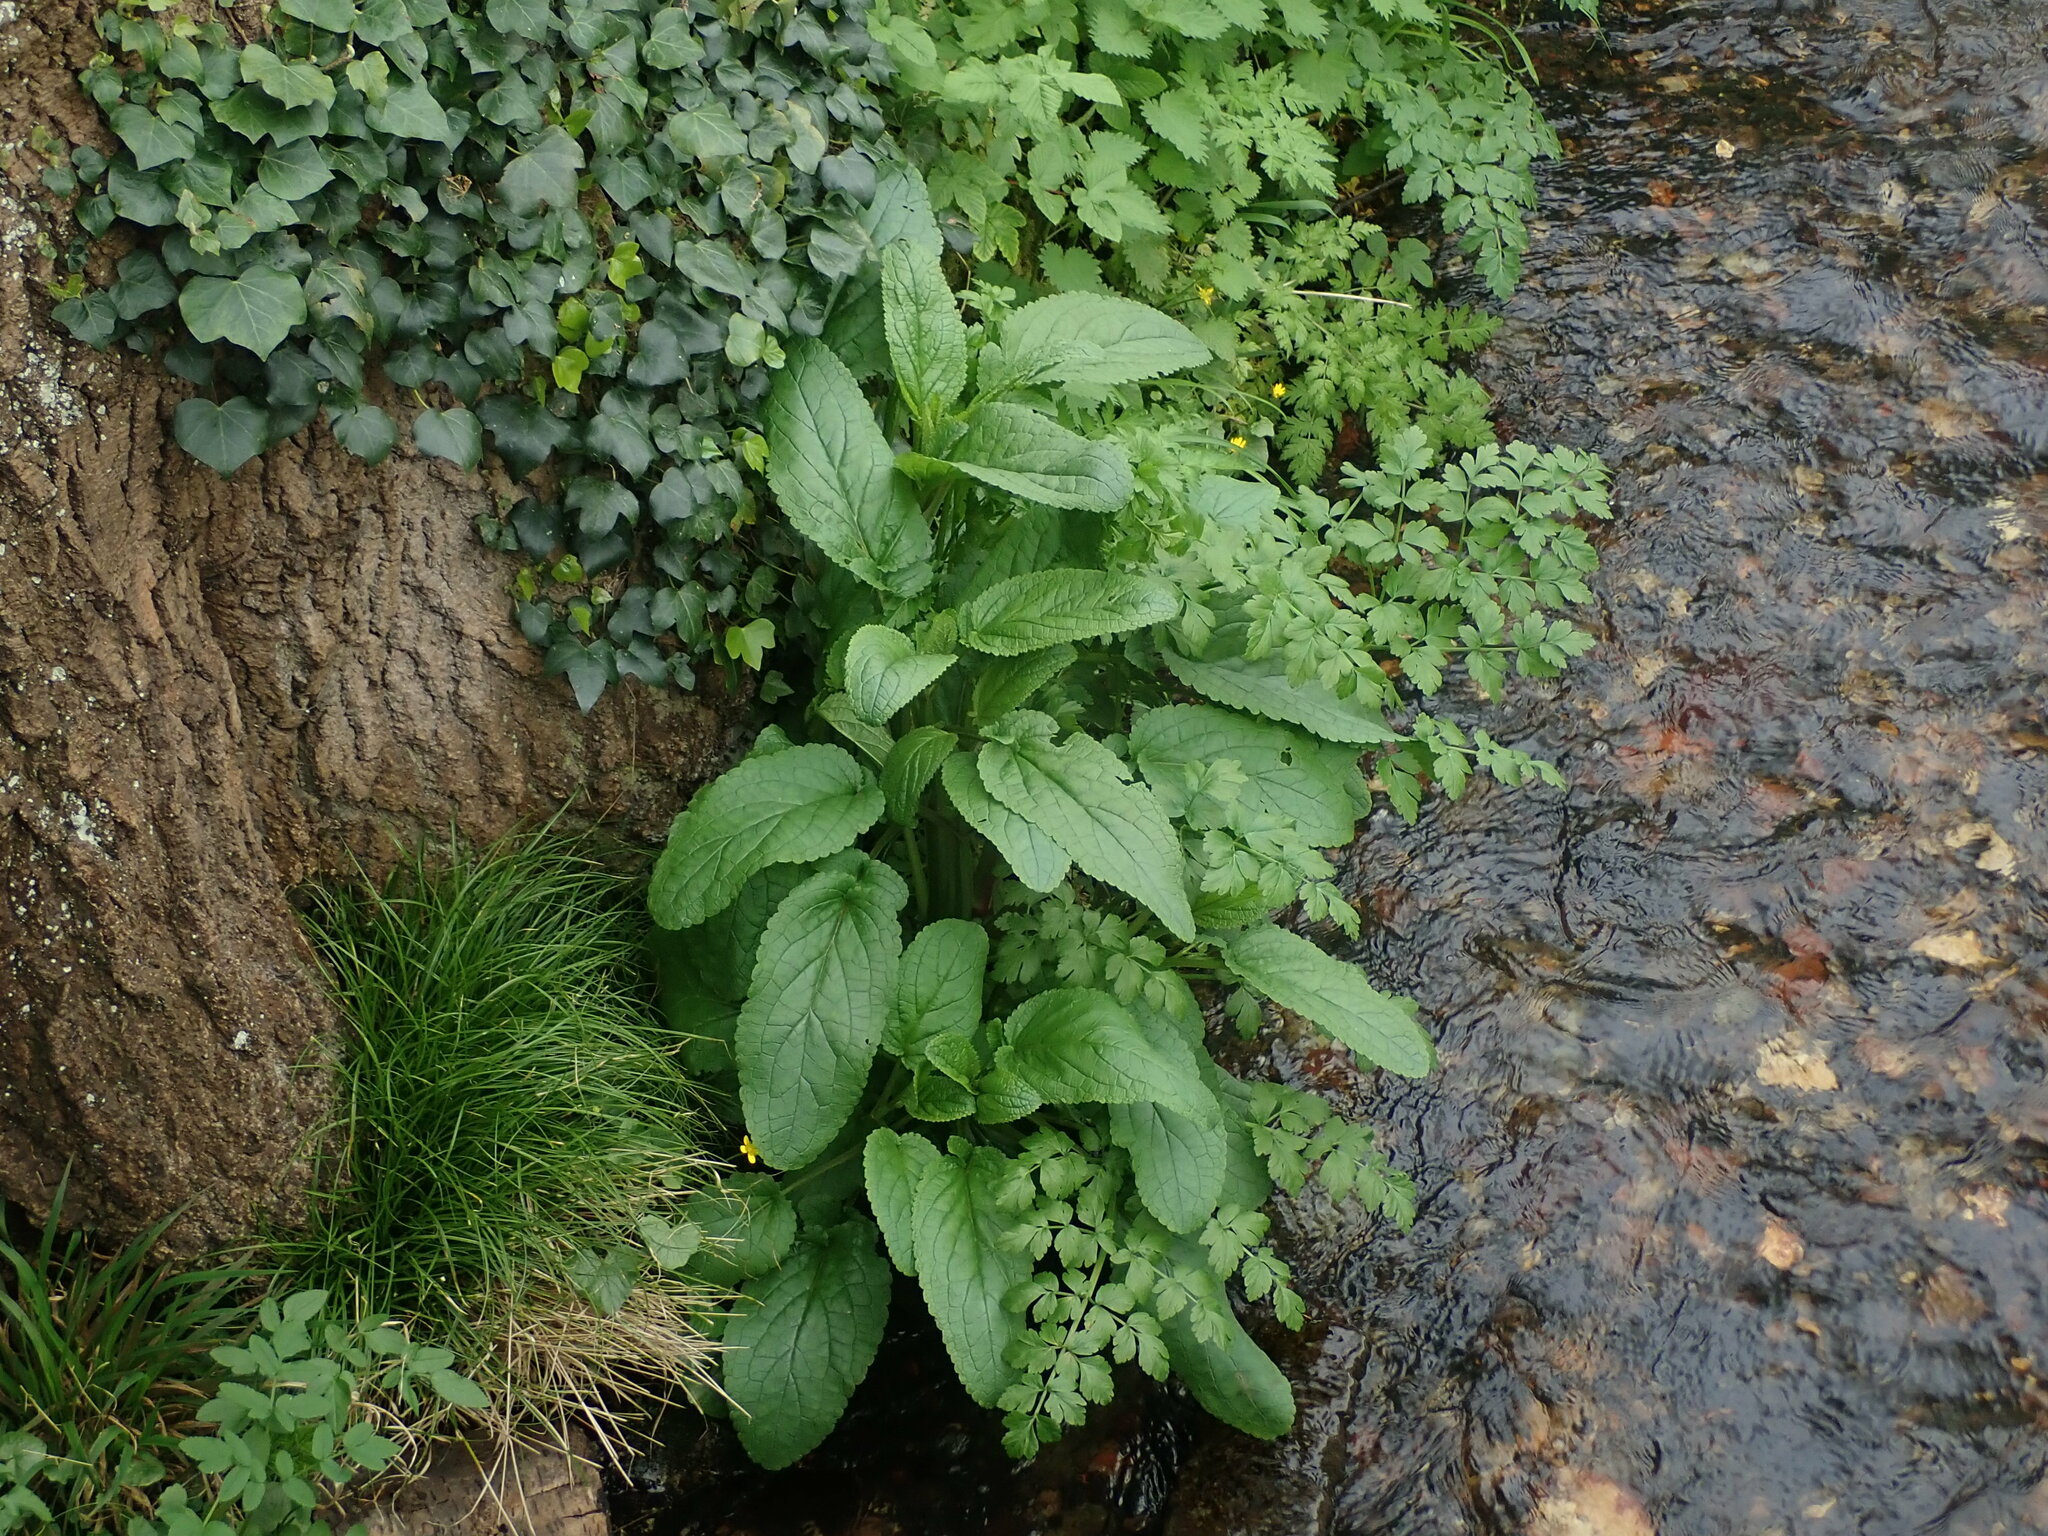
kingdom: Plantae
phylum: Tracheophyta
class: Magnoliopsida
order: Lamiales
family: Scrophulariaceae
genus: Scrophularia
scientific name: Scrophularia auriculata
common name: Water betony
